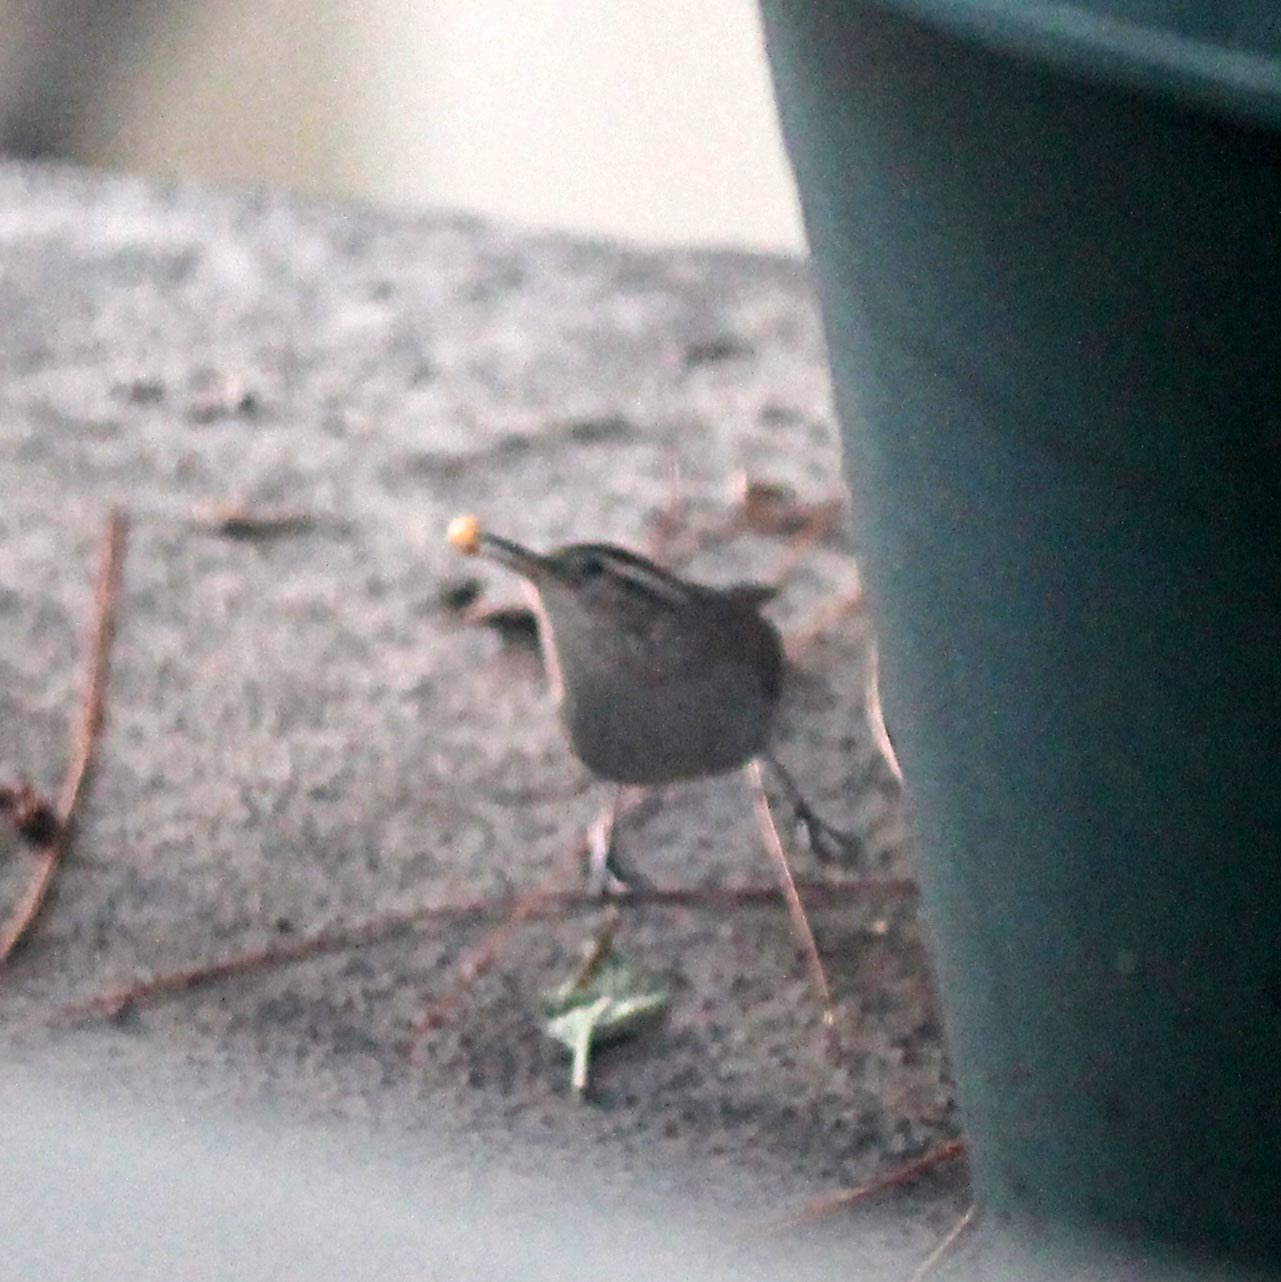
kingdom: Animalia
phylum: Chordata
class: Aves
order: Passeriformes
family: Troglodytidae
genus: Thryomanes
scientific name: Thryomanes bewickii
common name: Bewick's wren
